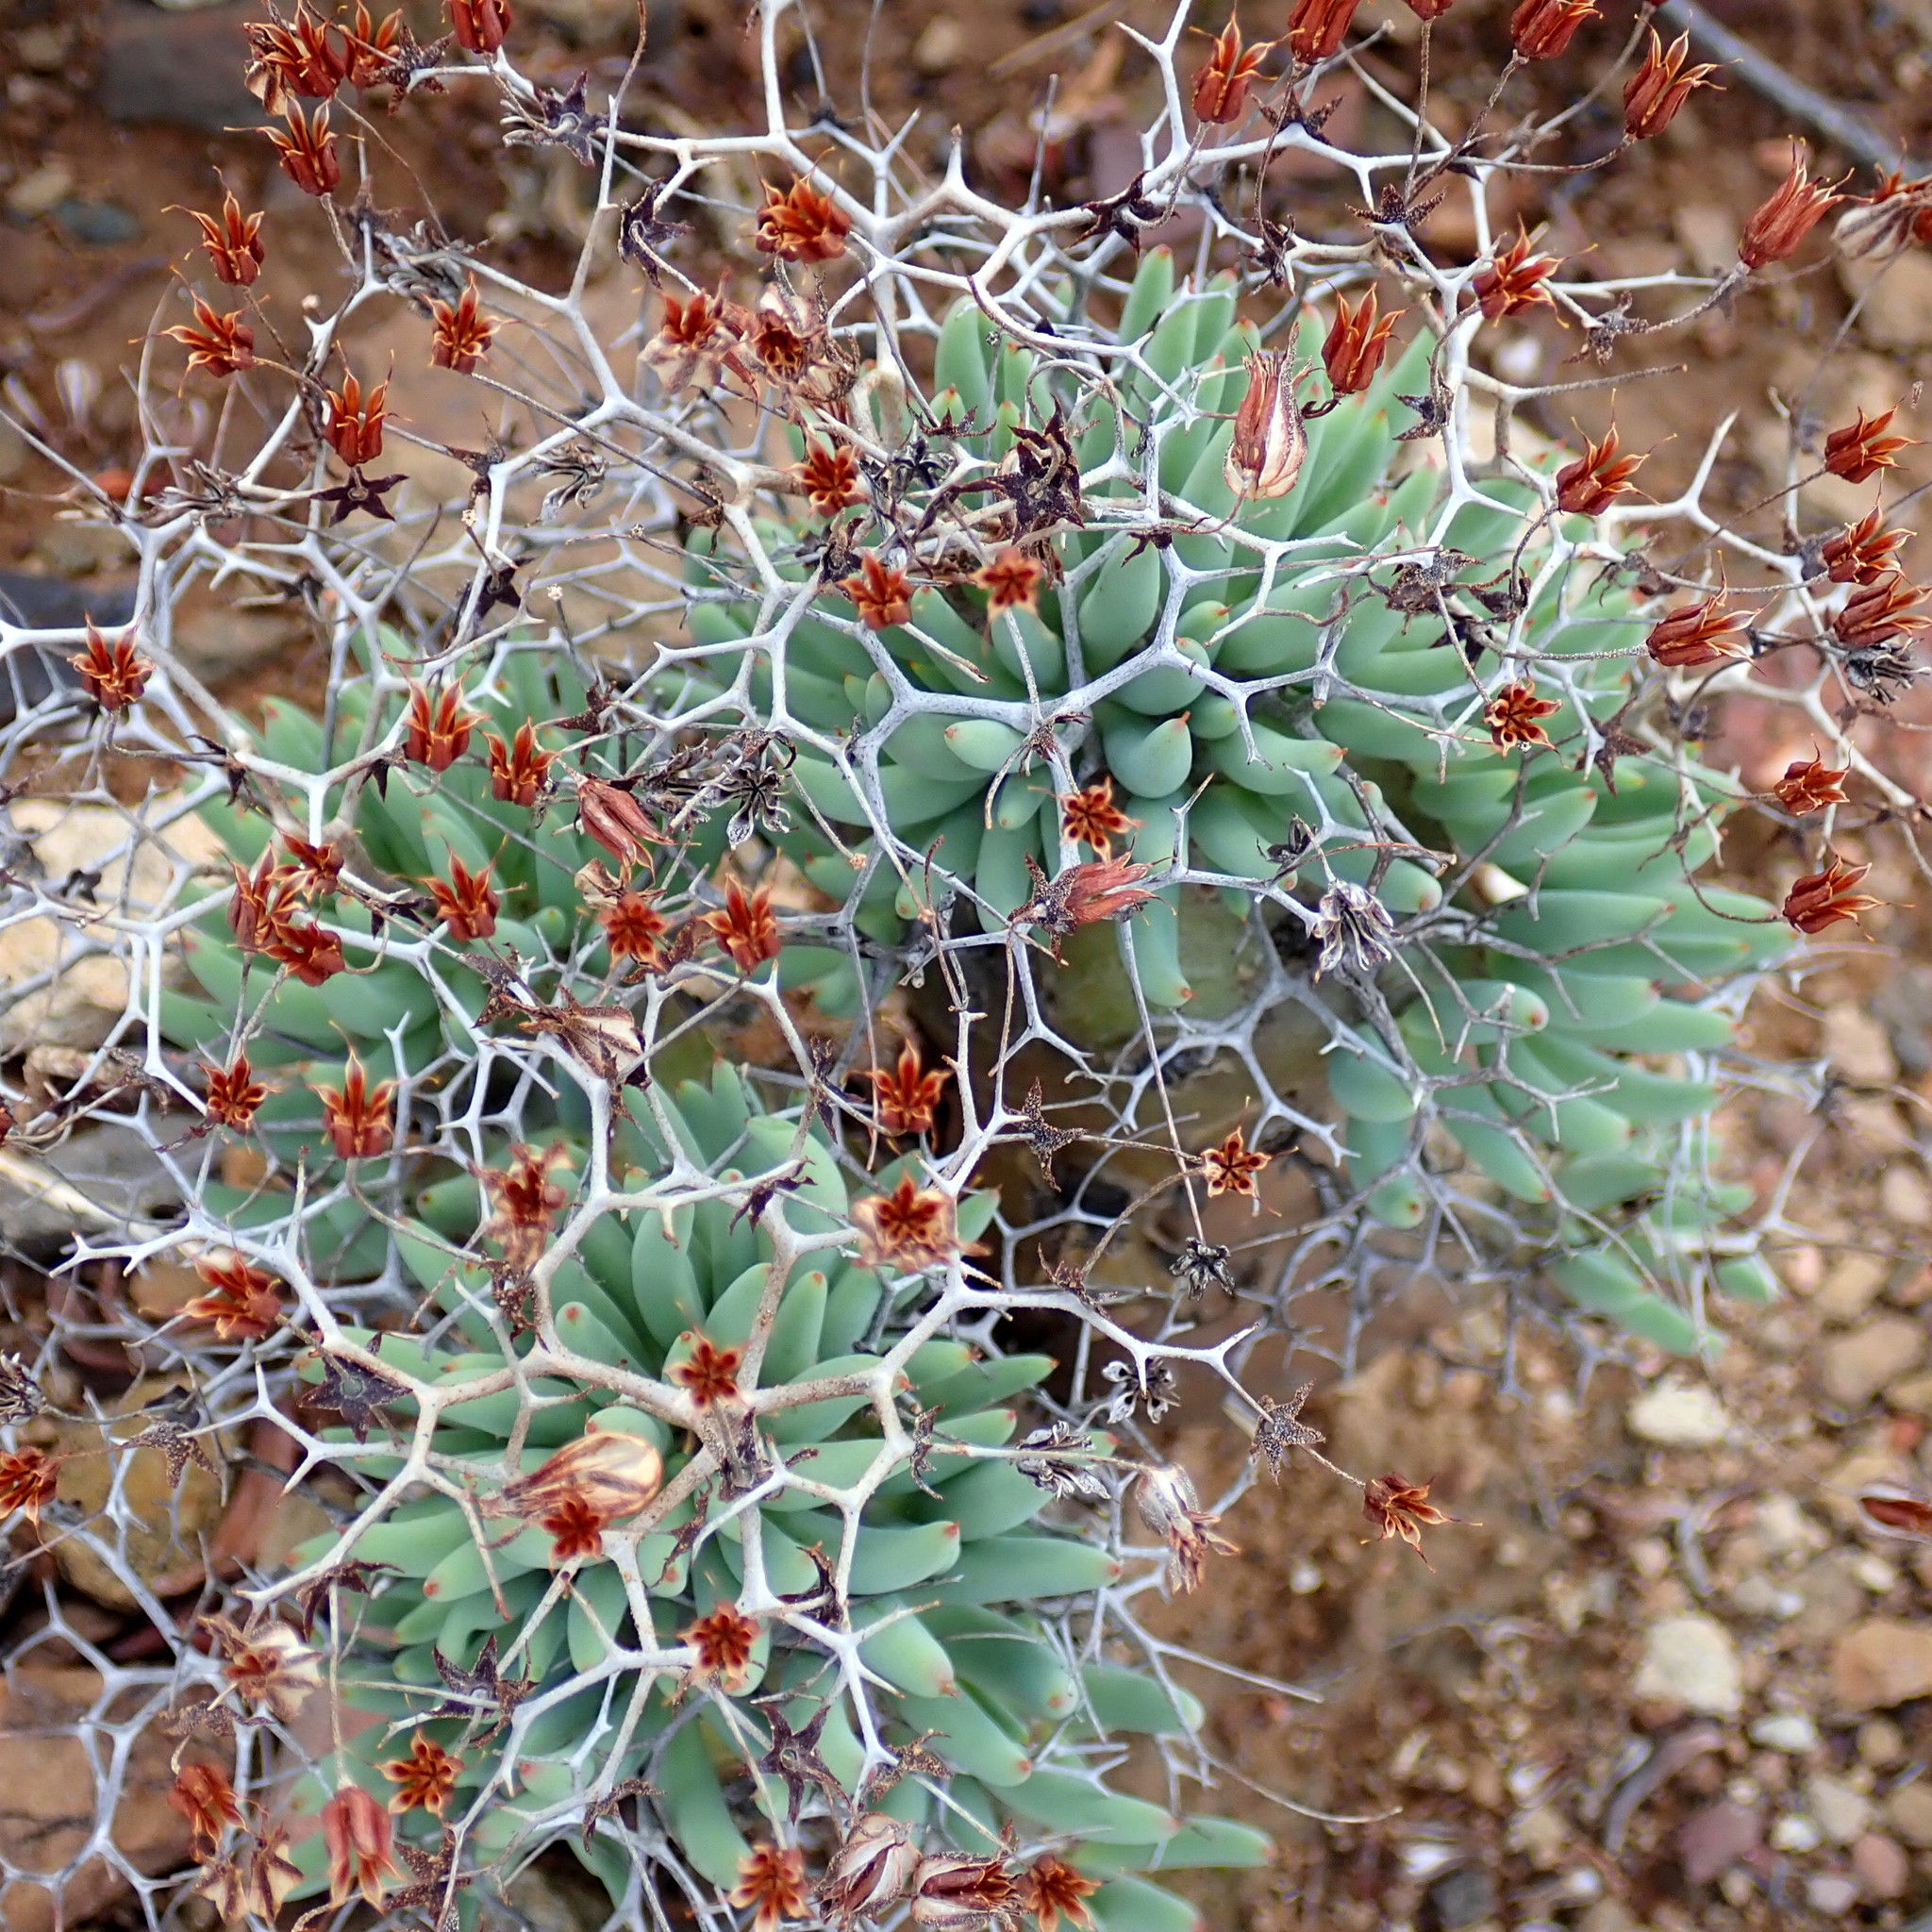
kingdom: Plantae
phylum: Tracheophyta
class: Magnoliopsida
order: Saxifragales
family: Crassulaceae
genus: Tylecodon
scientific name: Tylecodon reticulatus
